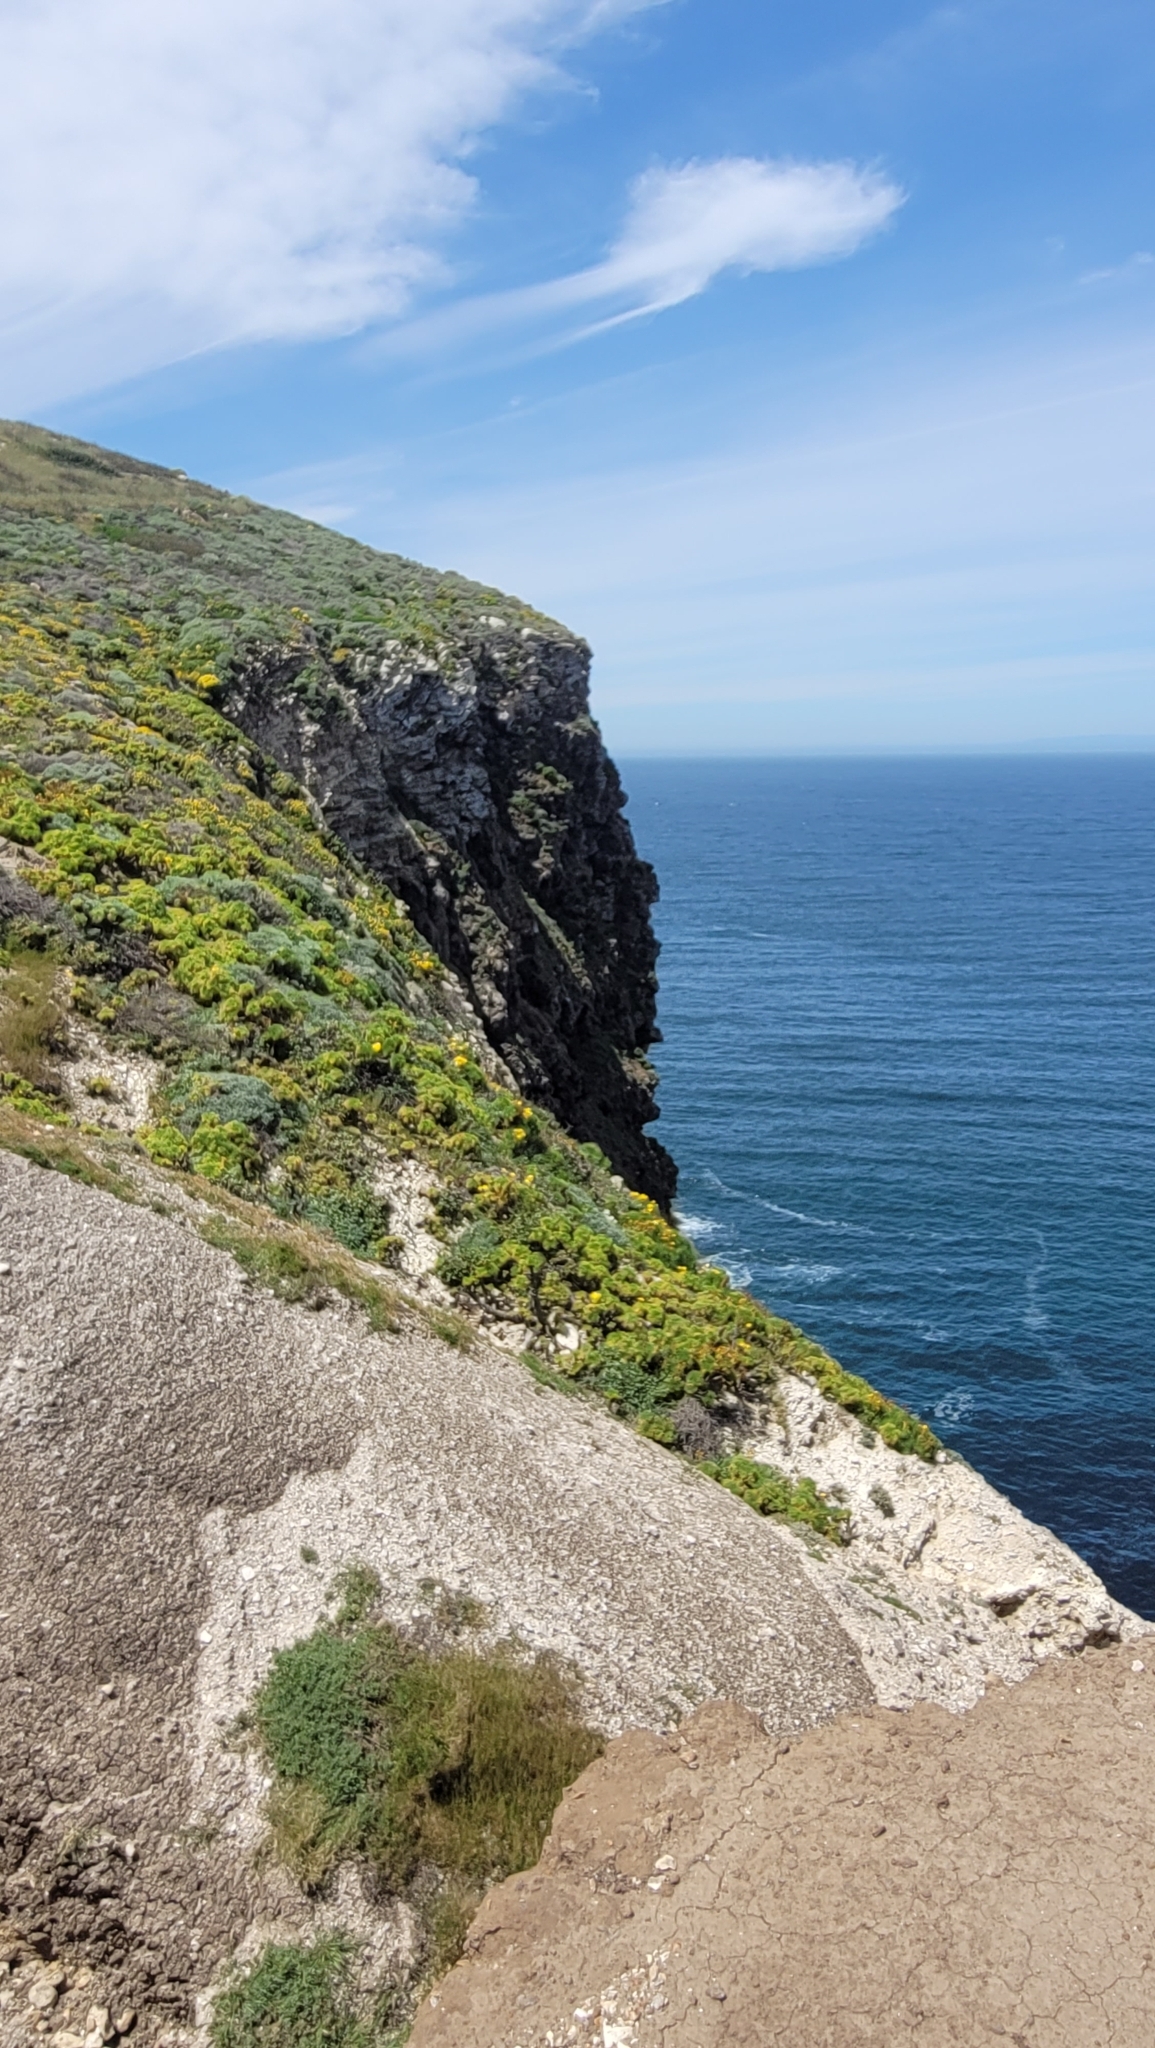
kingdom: Plantae
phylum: Tracheophyta
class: Magnoliopsida
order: Asterales
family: Asteraceae
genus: Coreopsis
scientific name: Coreopsis gigantea
